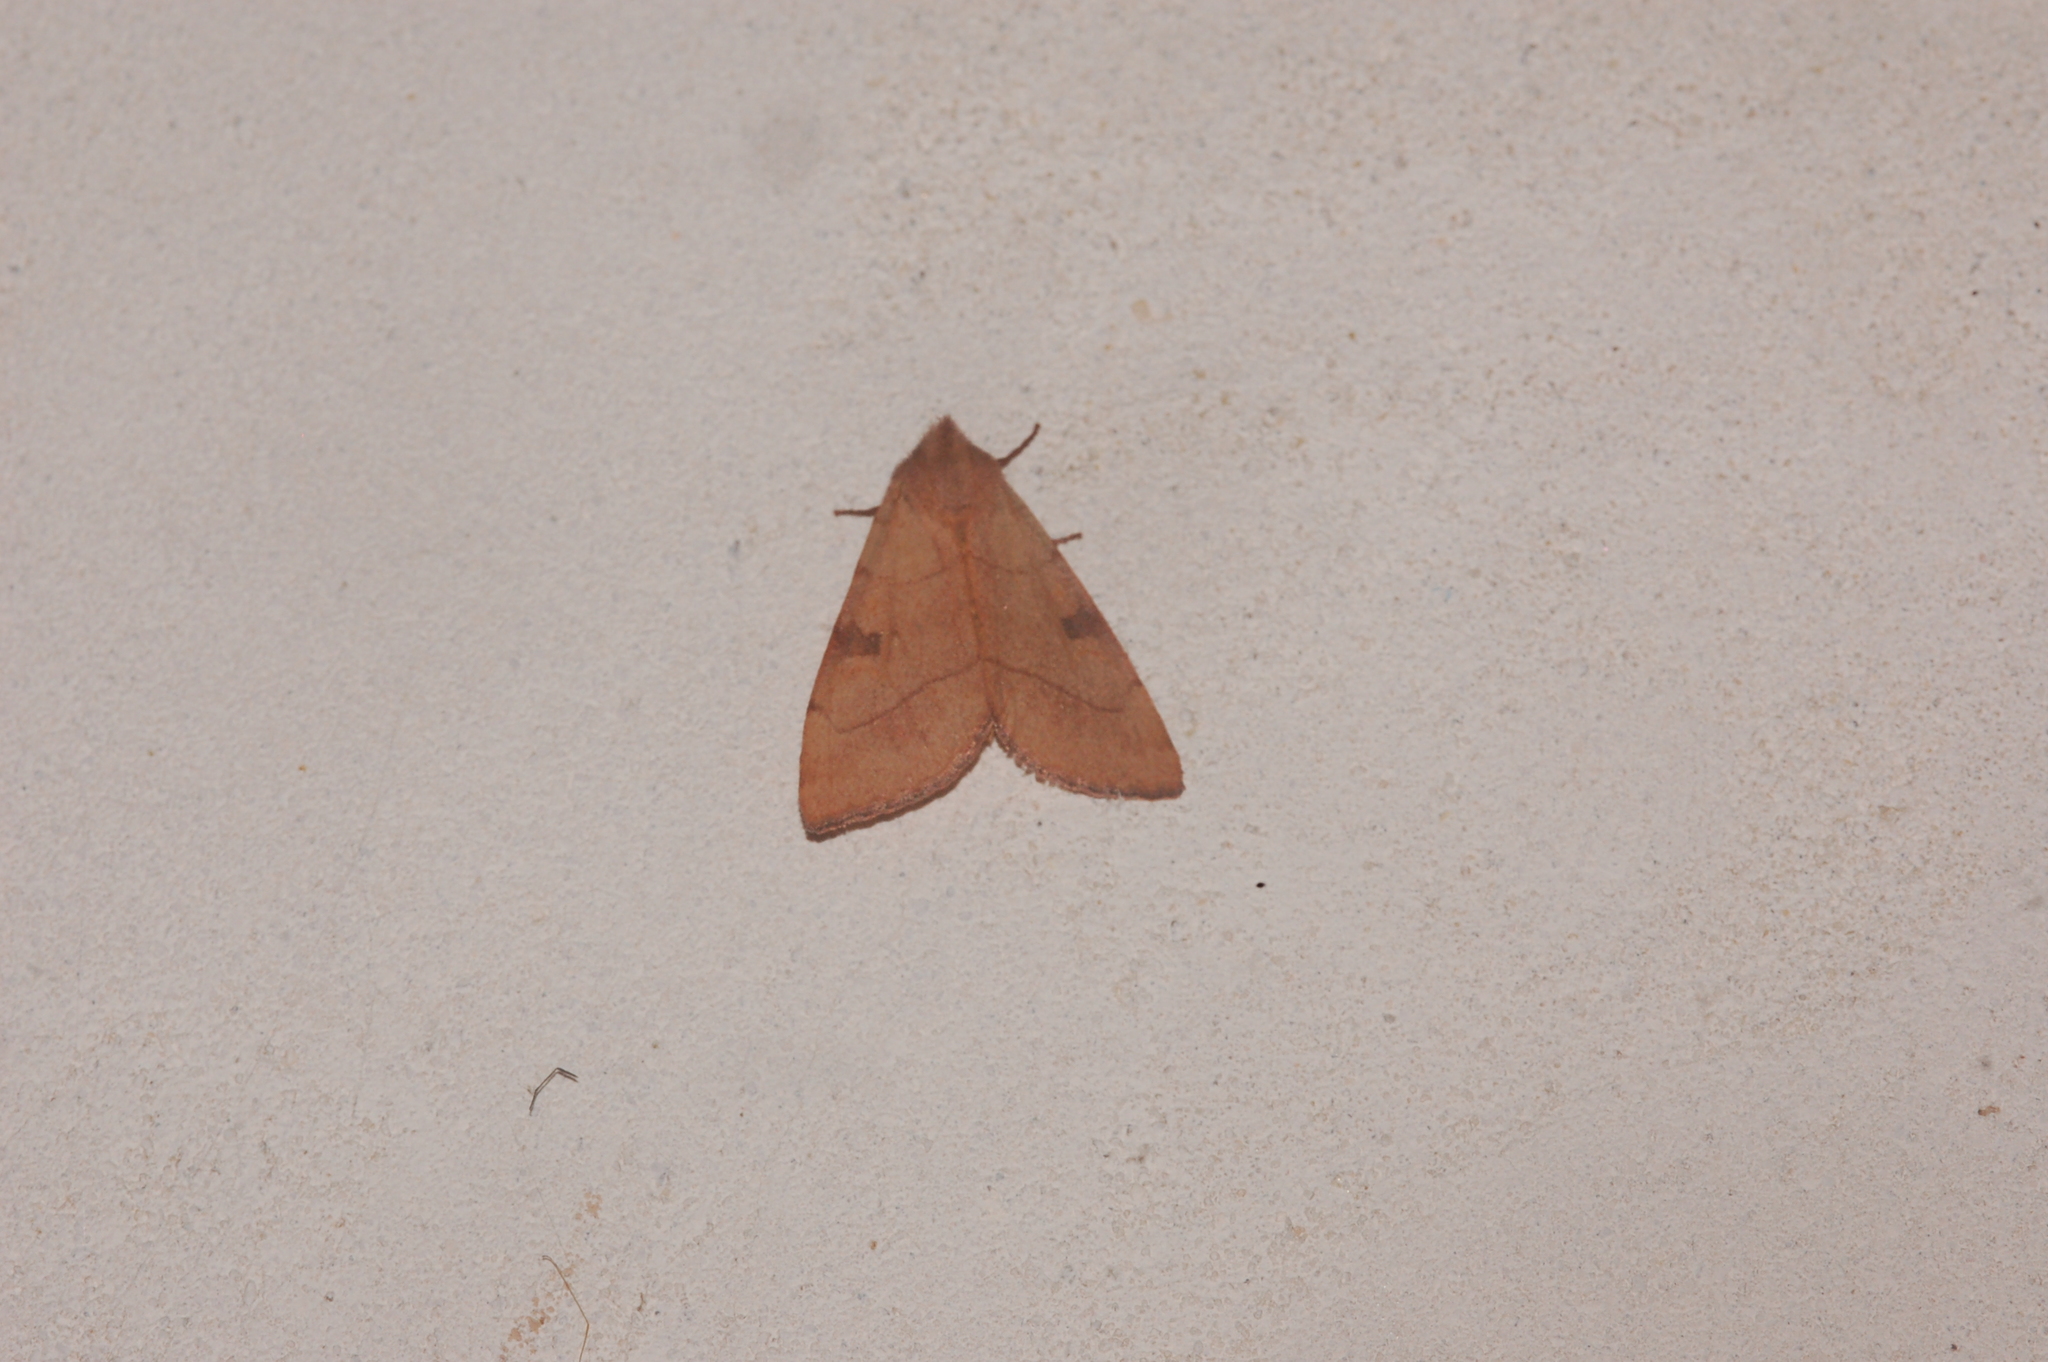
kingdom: Animalia
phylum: Arthropoda
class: Insecta
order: Lepidoptera
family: Noctuidae
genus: Choephora
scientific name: Choephora fungorum
